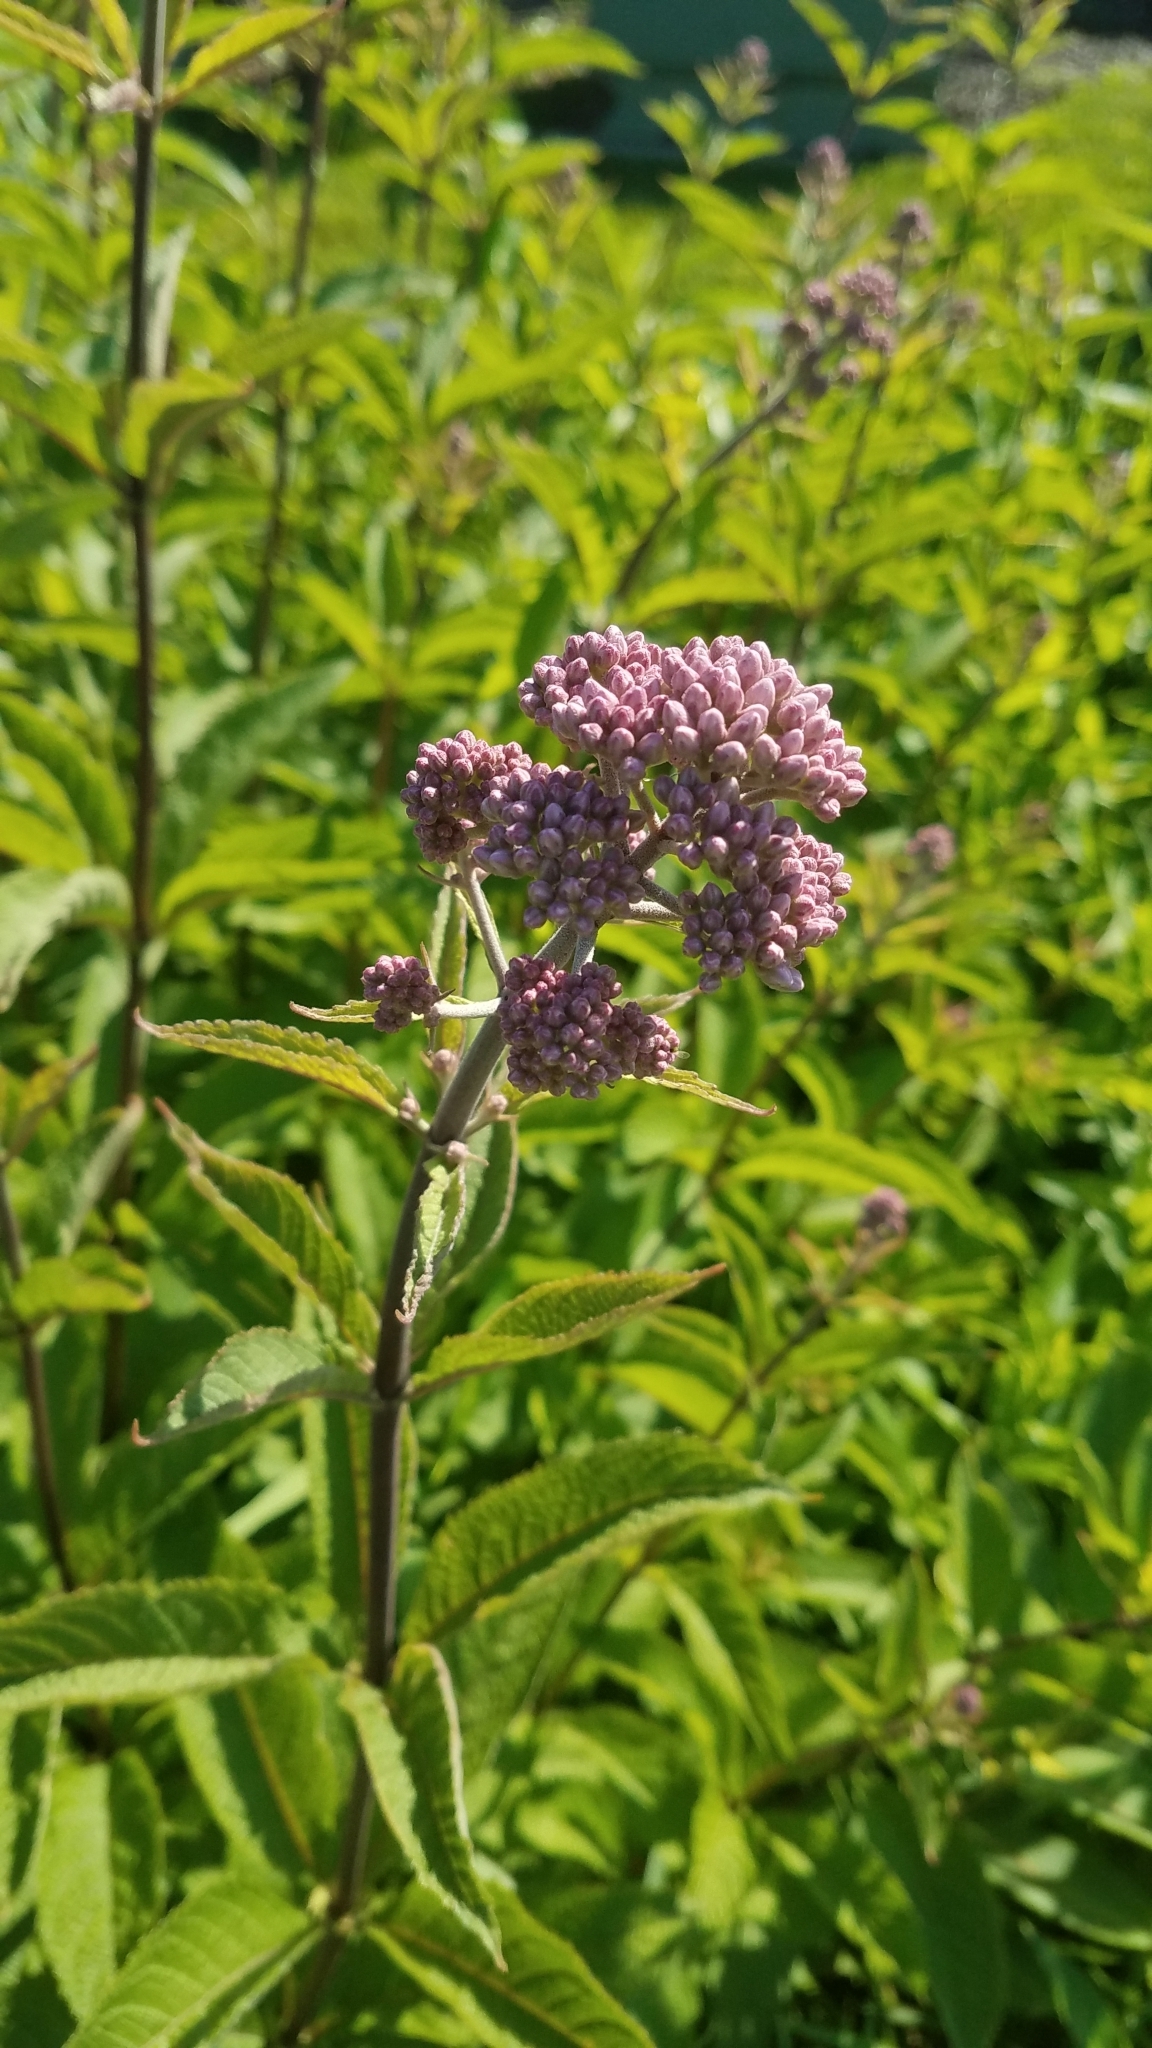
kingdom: Plantae
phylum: Tracheophyta
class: Magnoliopsida
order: Asterales
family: Asteraceae
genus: Eutrochium
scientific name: Eutrochium maculatum
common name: Spotted joe pye weed
